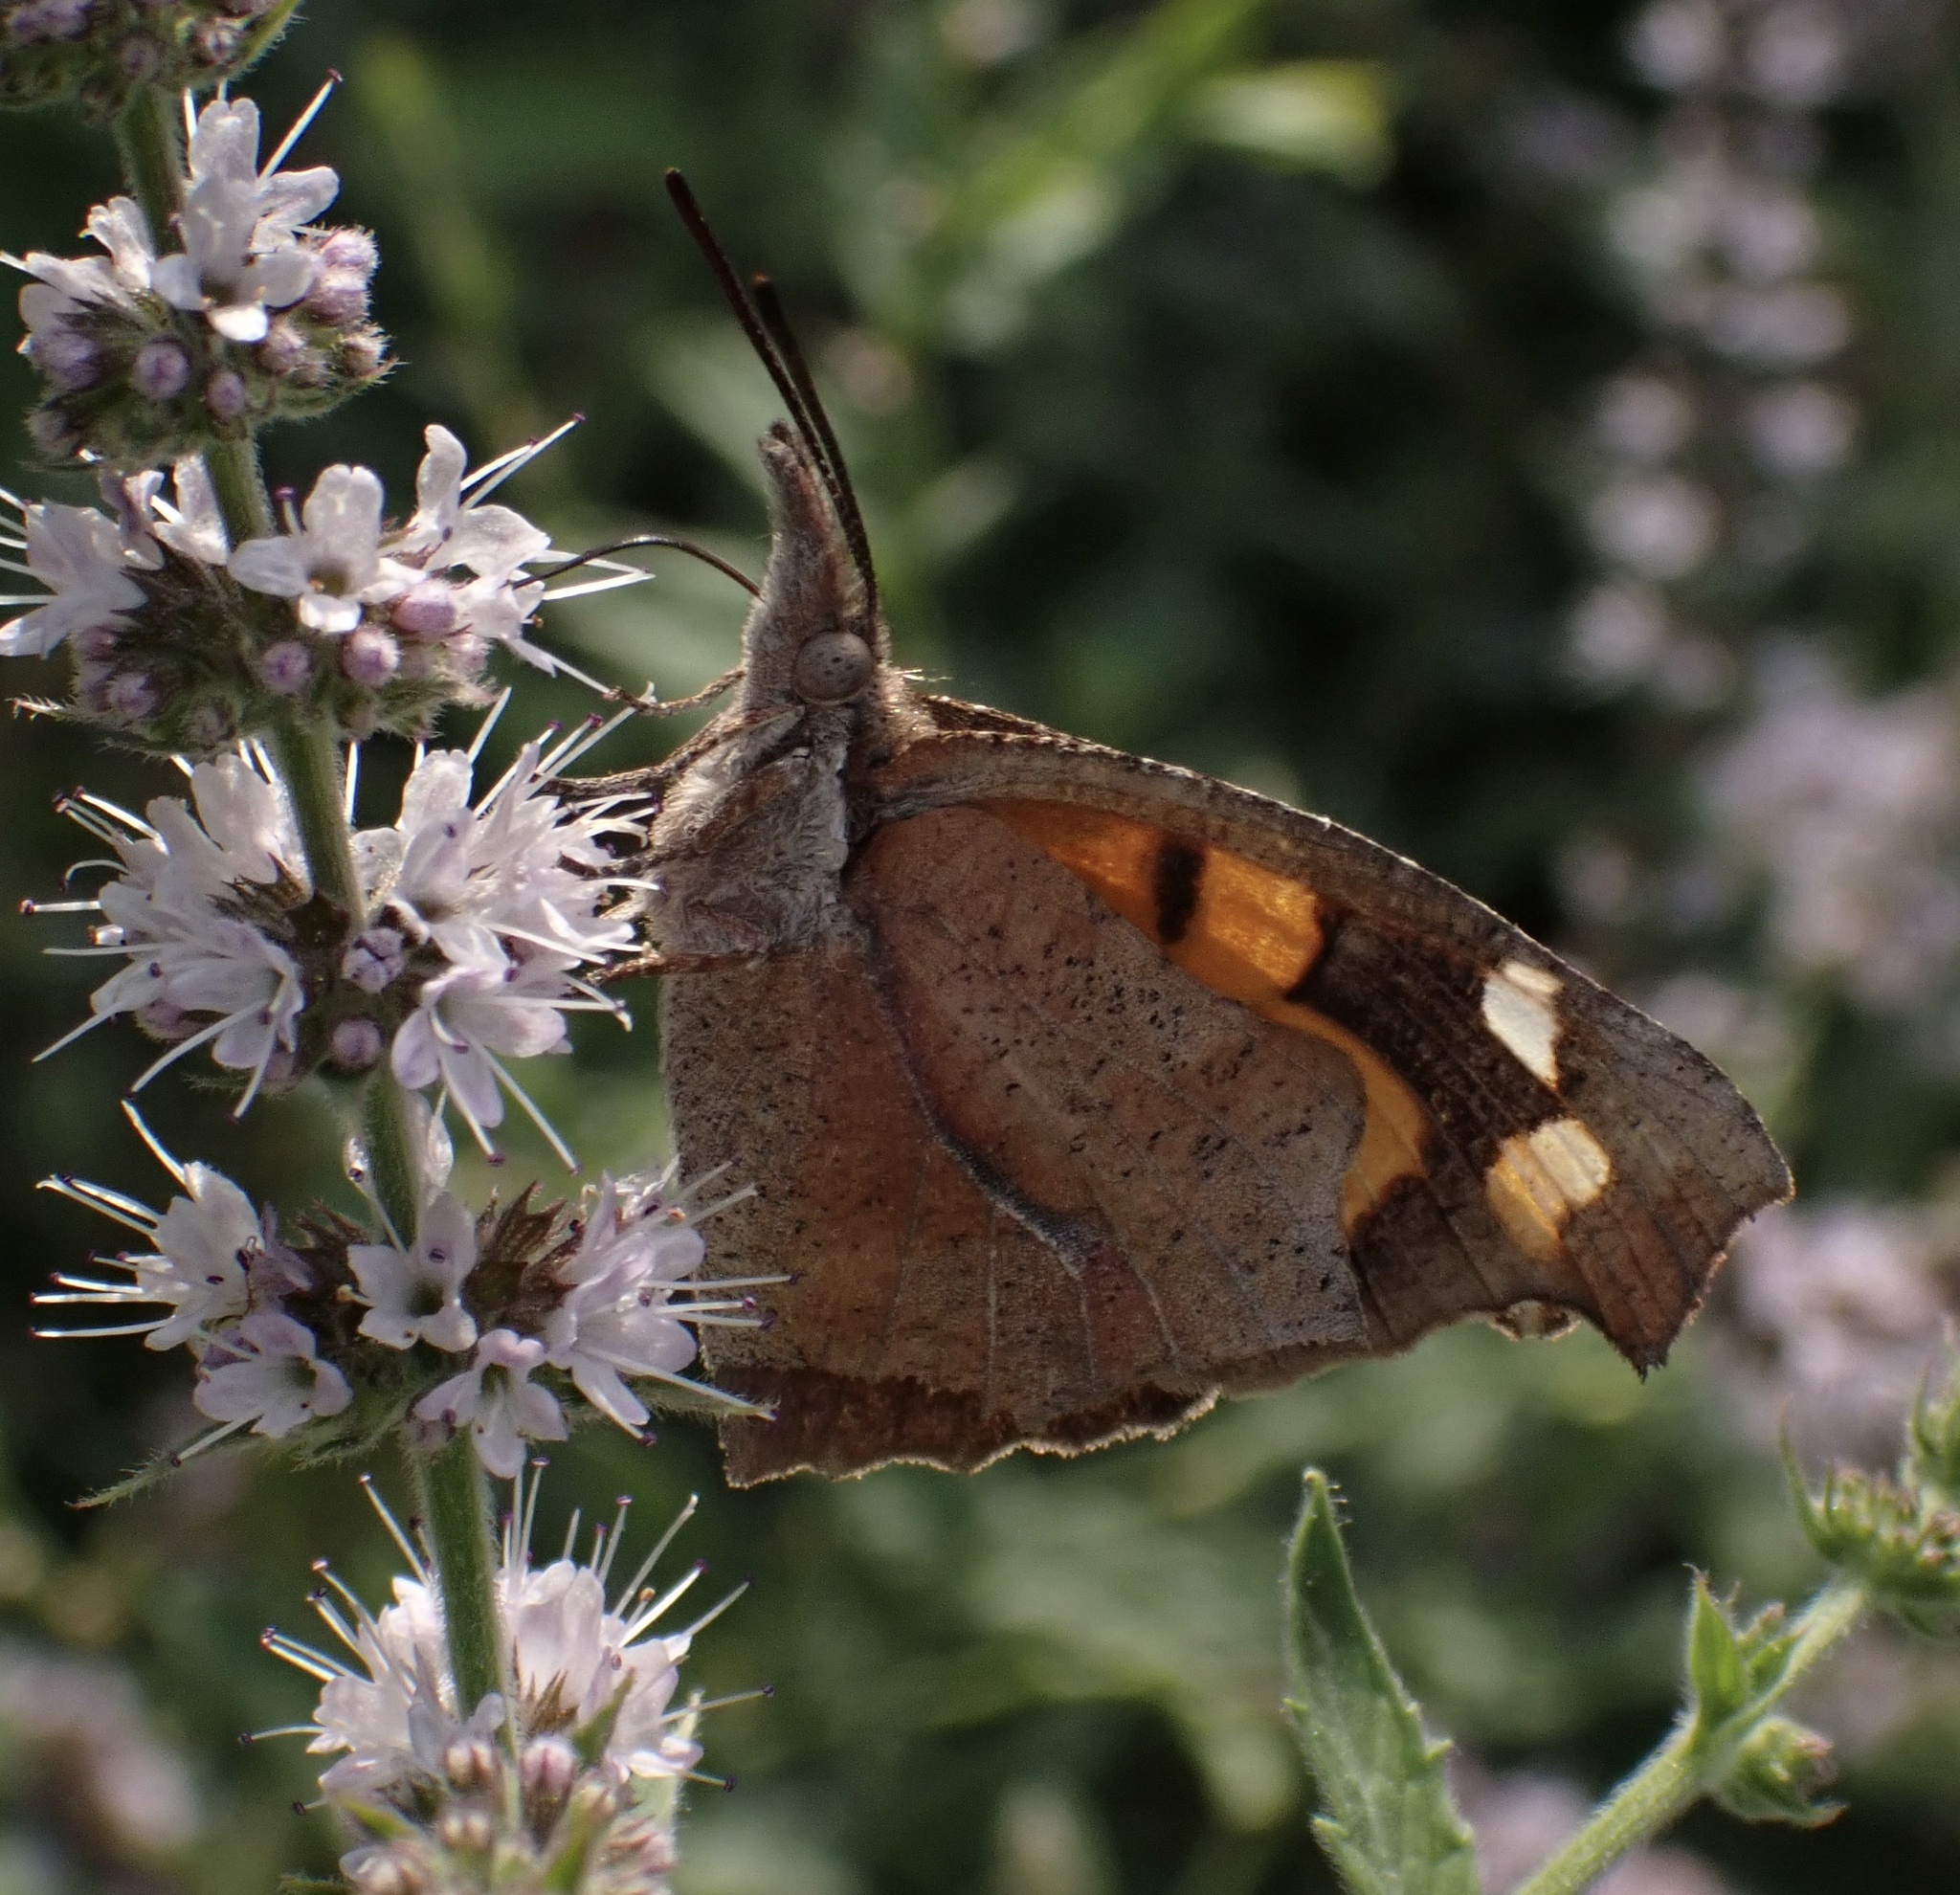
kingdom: Animalia
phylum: Arthropoda
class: Insecta
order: Lepidoptera
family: Nymphalidae
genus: Libythea
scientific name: Libythea celtis
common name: Nettle-tree butterfly
